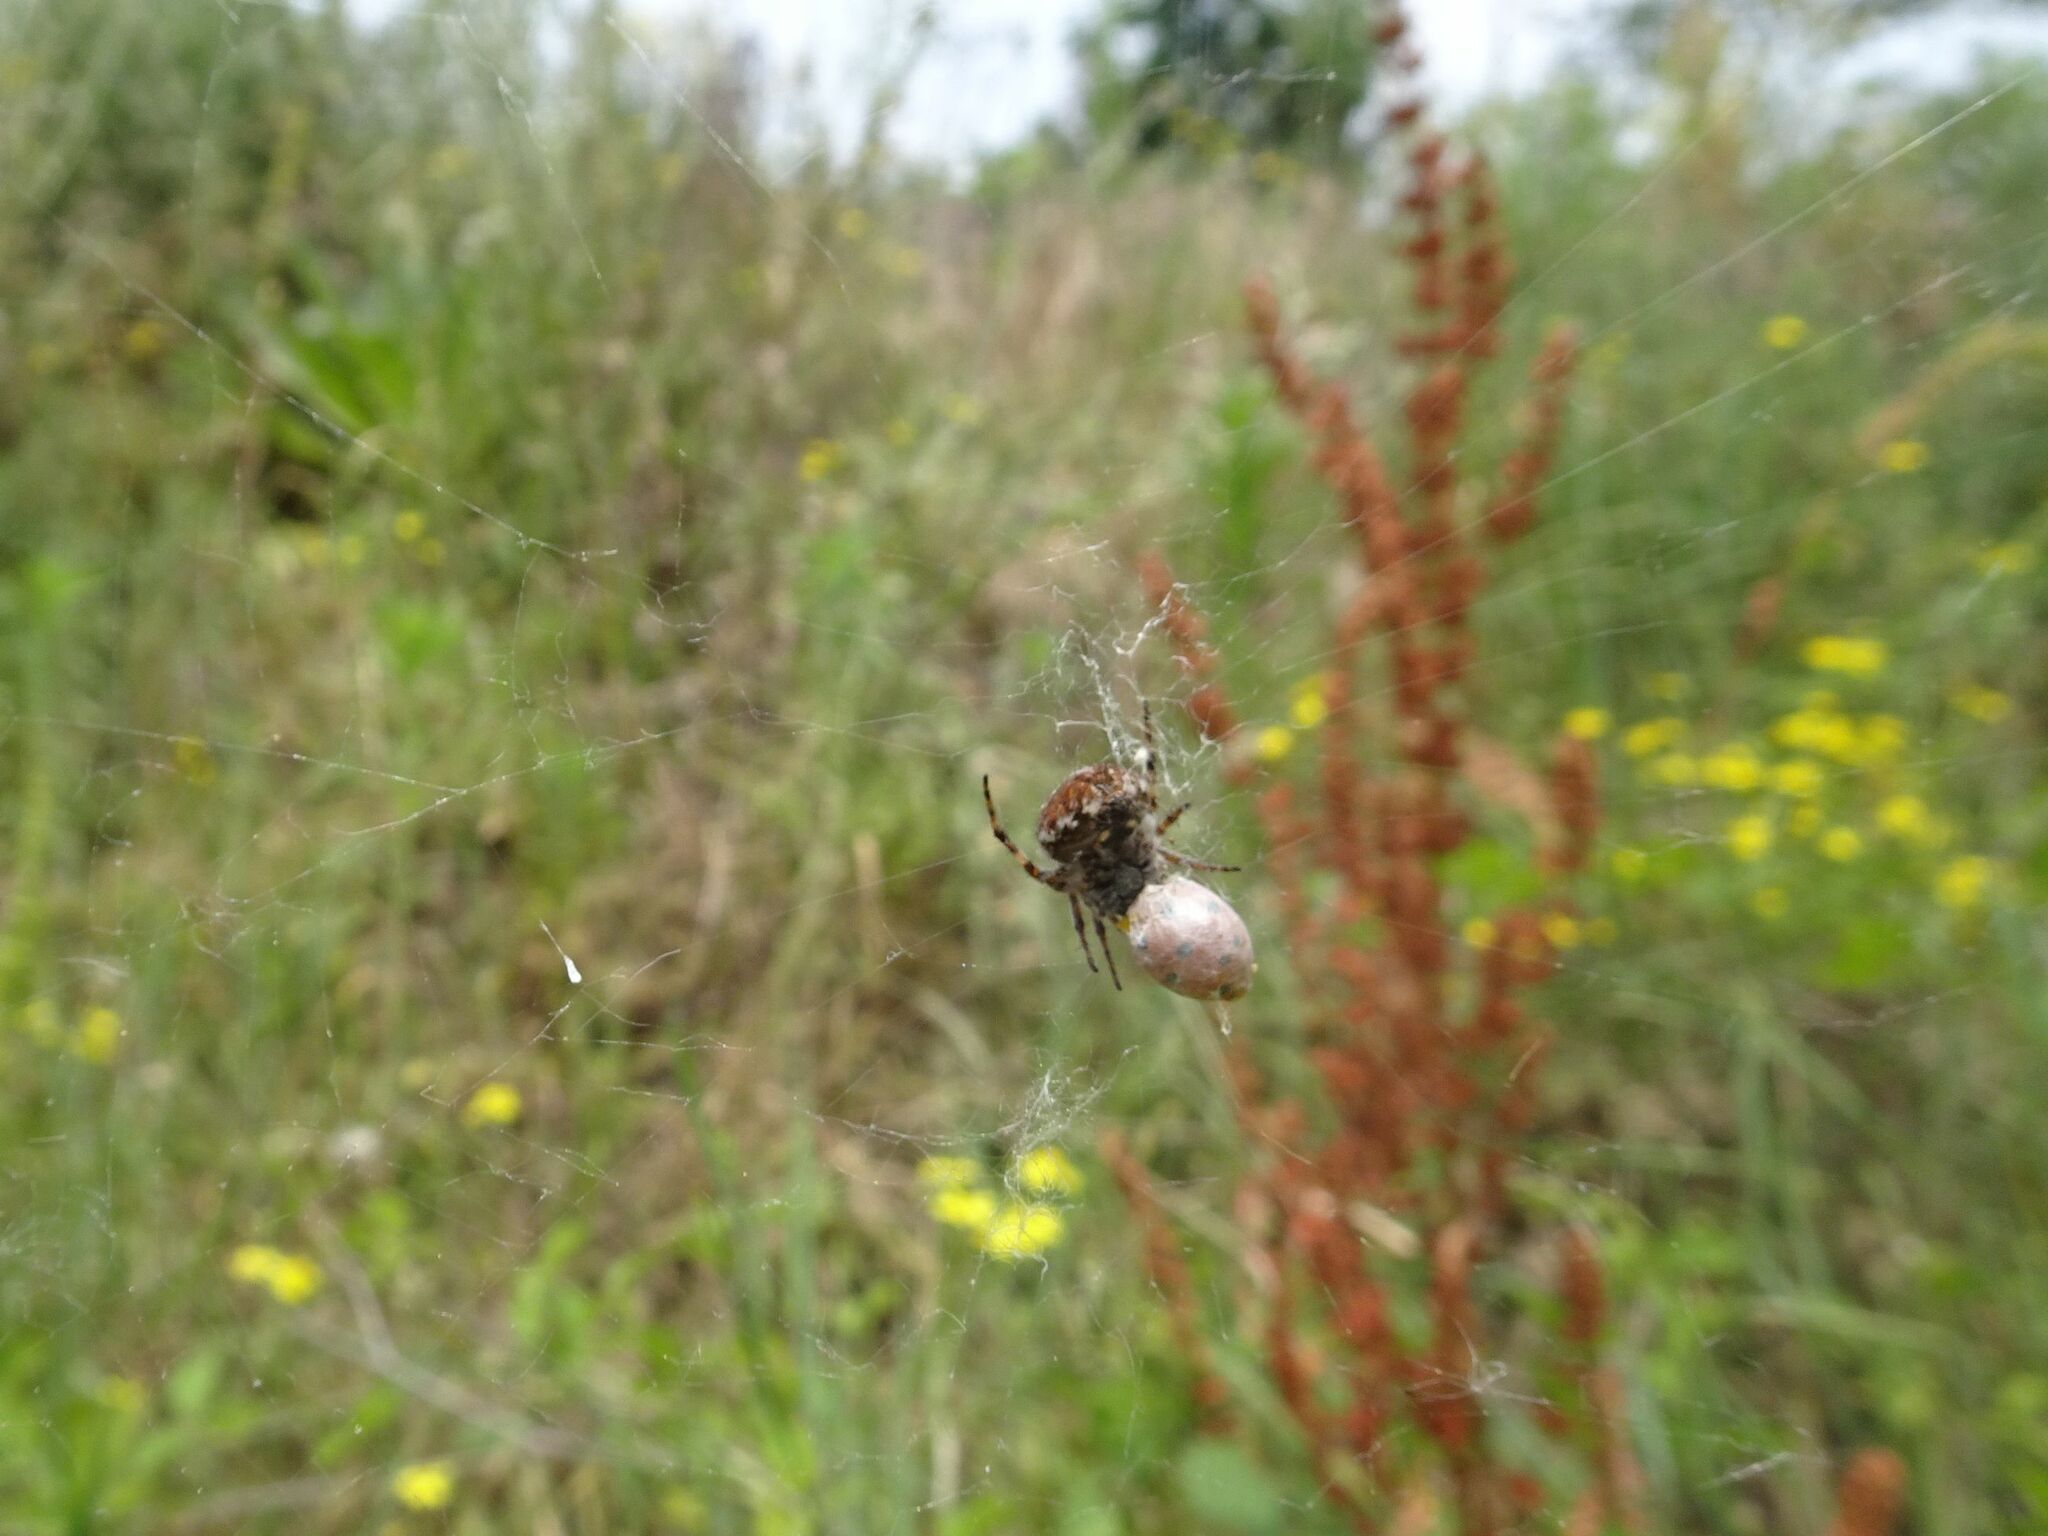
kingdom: Animalia
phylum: Arthropoda
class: Arachnida
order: Araneae
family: Araneidae
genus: Agalenatea
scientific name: Agalenatea redii
